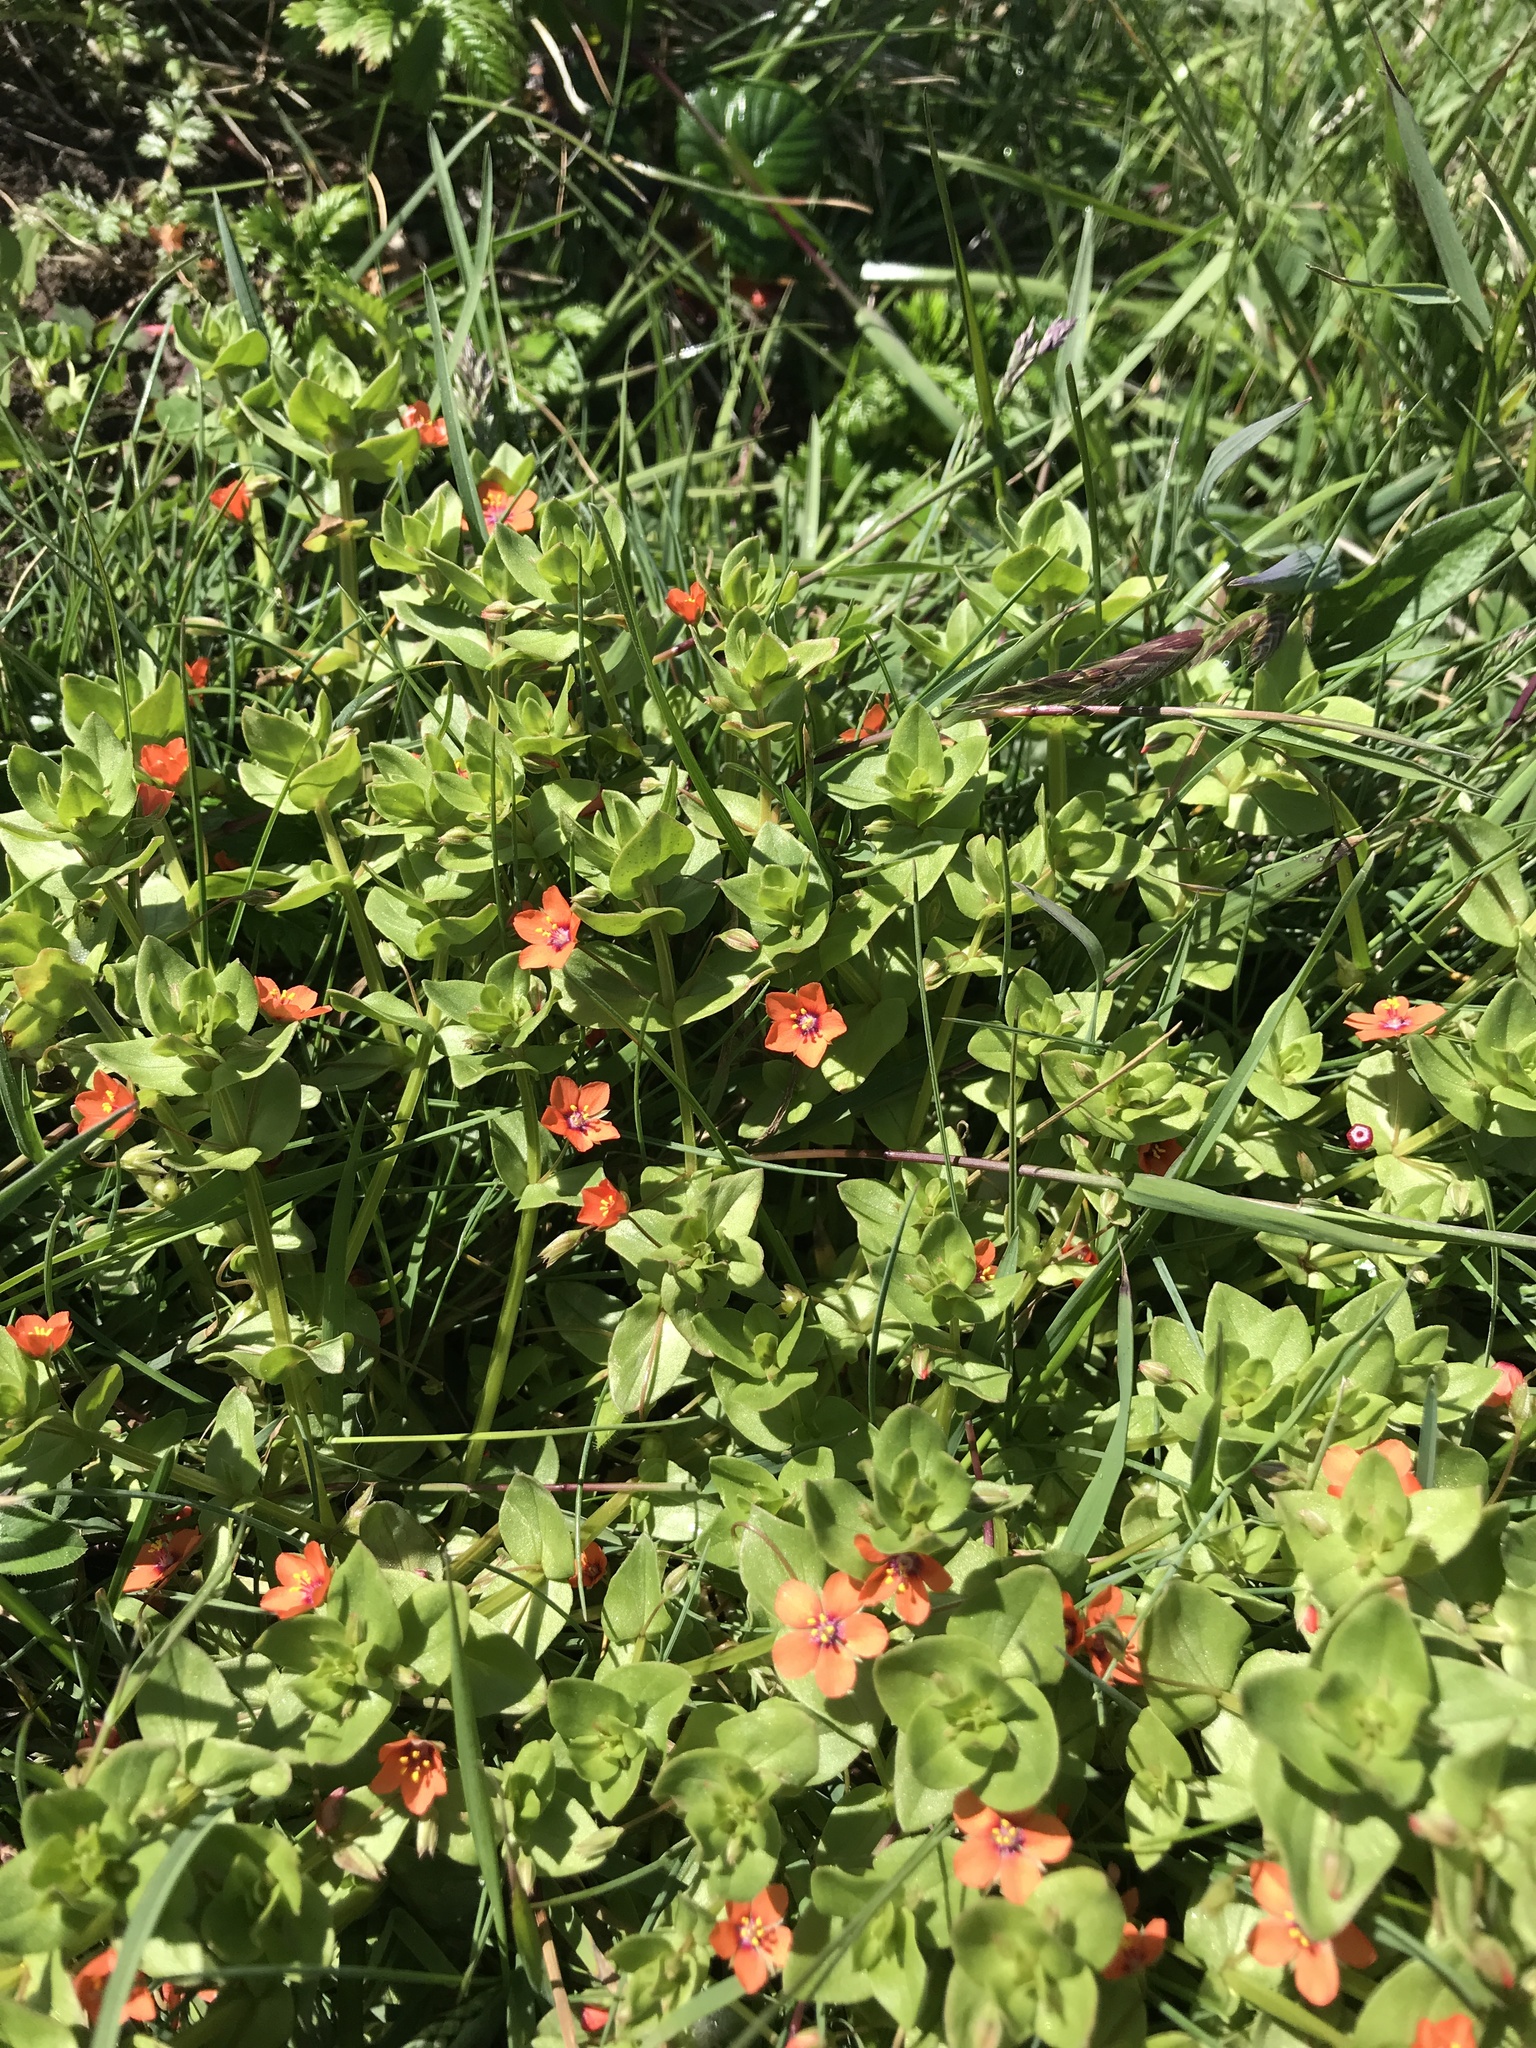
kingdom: Plantae
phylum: Tracheophyta
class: Magnoliopsida
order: Ericales
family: Primulaceae
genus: Lysimachia
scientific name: Lysimachia arvensis
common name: Scarlet pimpernel
